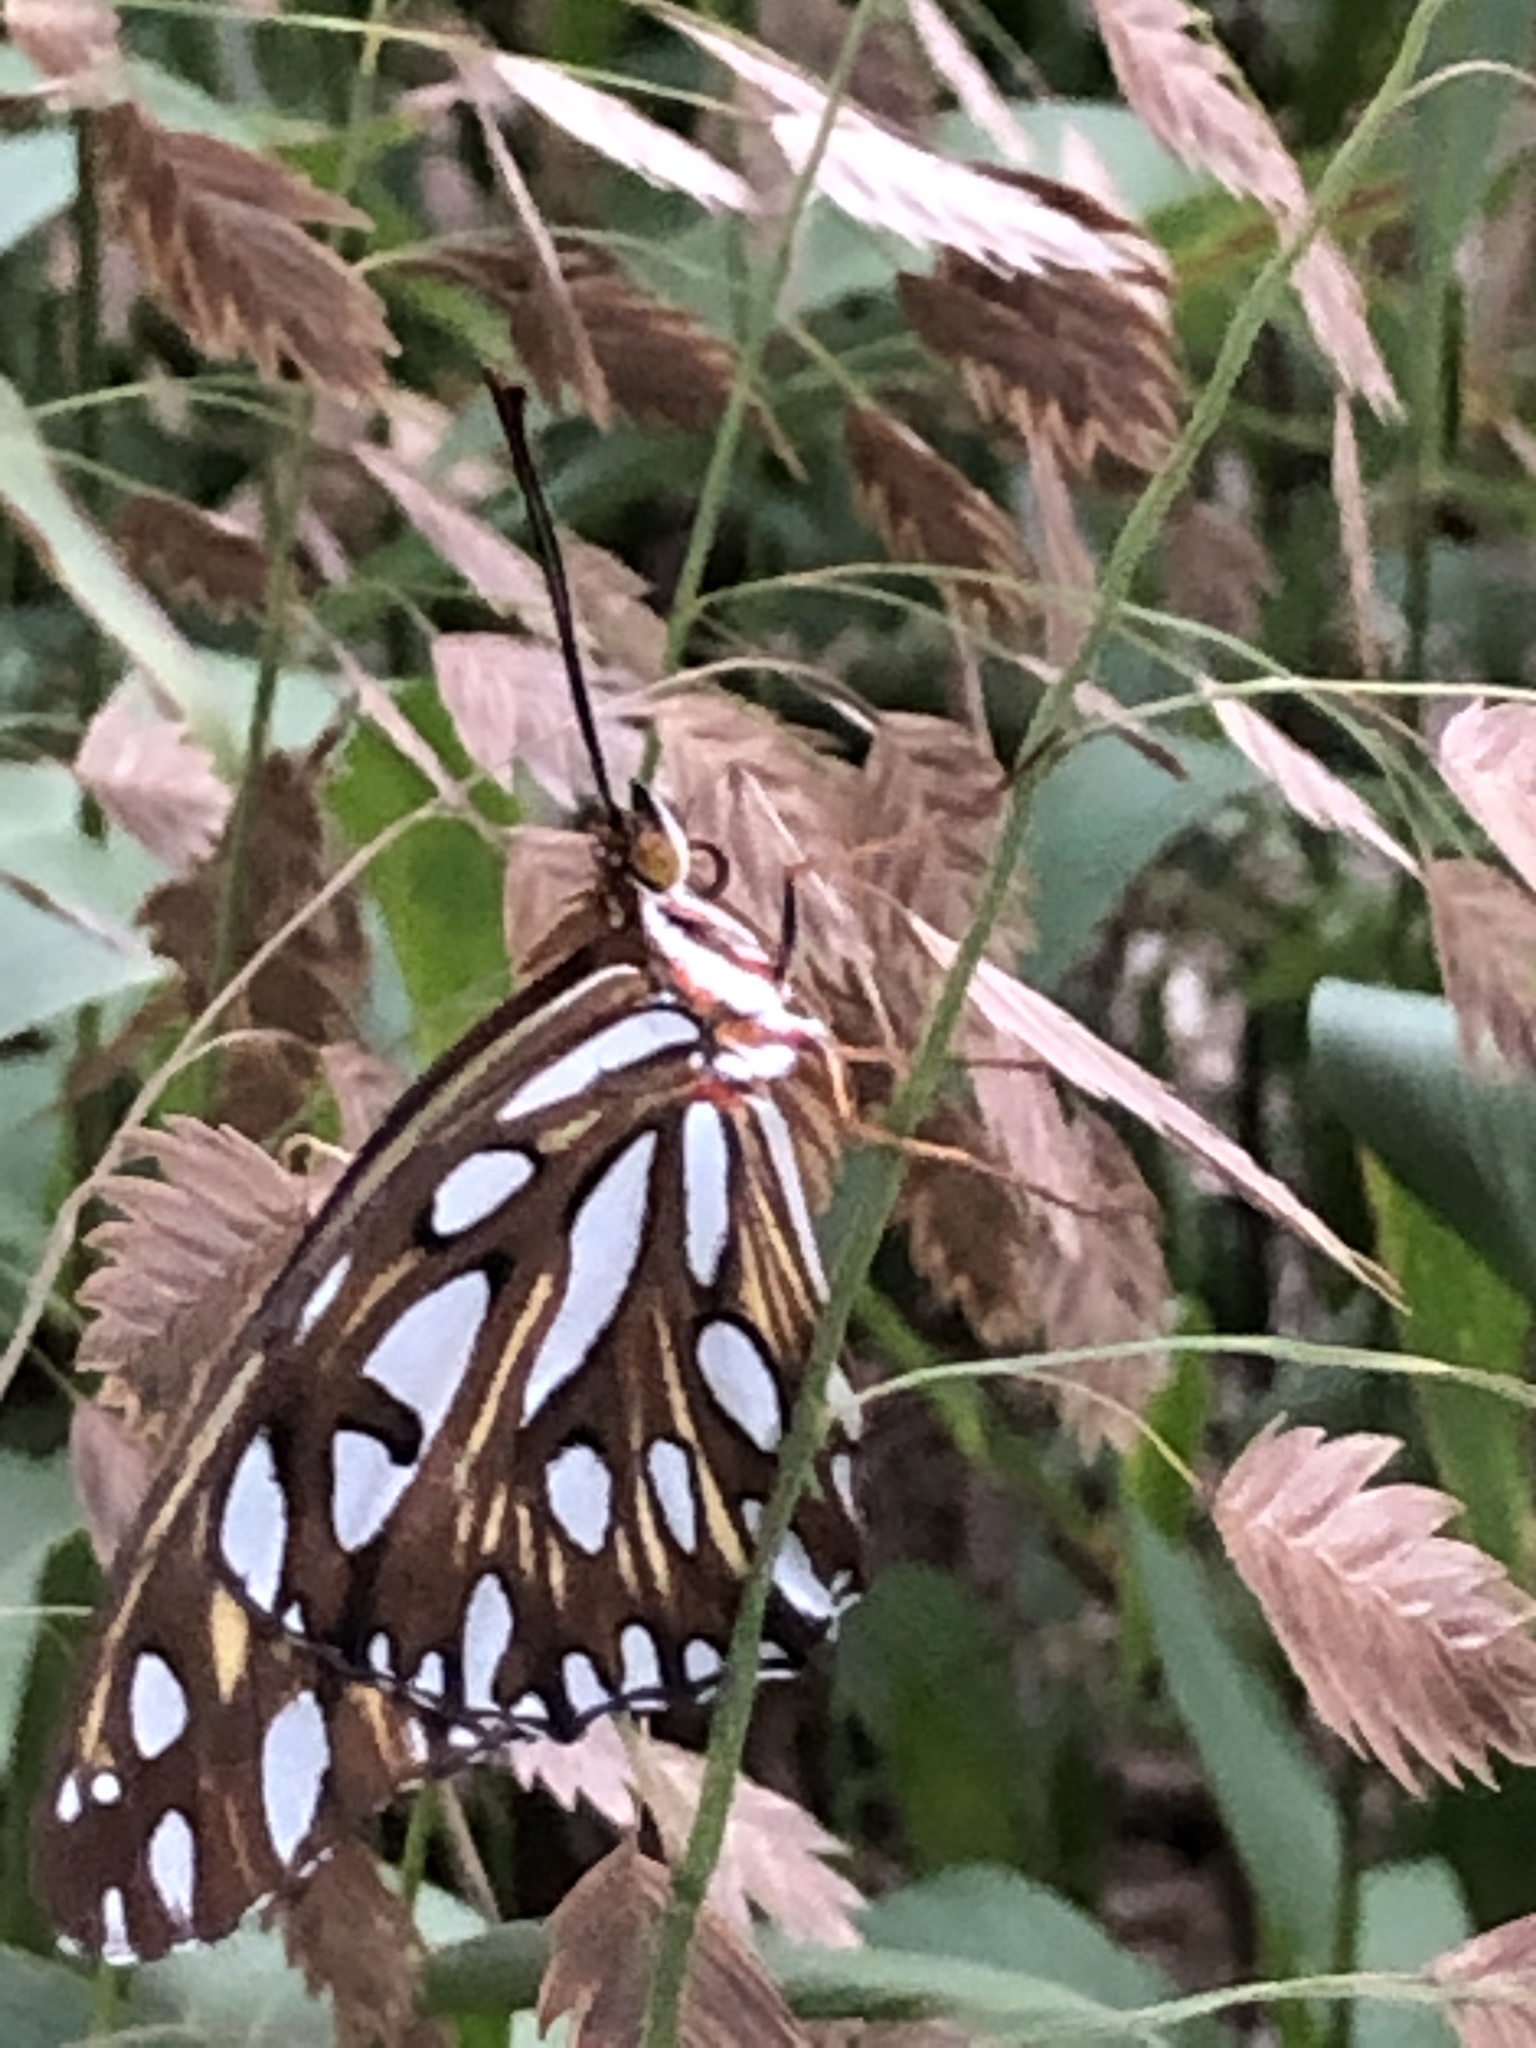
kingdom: Animalia
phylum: Arthropoda
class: Insecta
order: Lepidoptera
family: Nymphalidae
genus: Dione
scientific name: Dione vanillae
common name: Gulf fritillary
